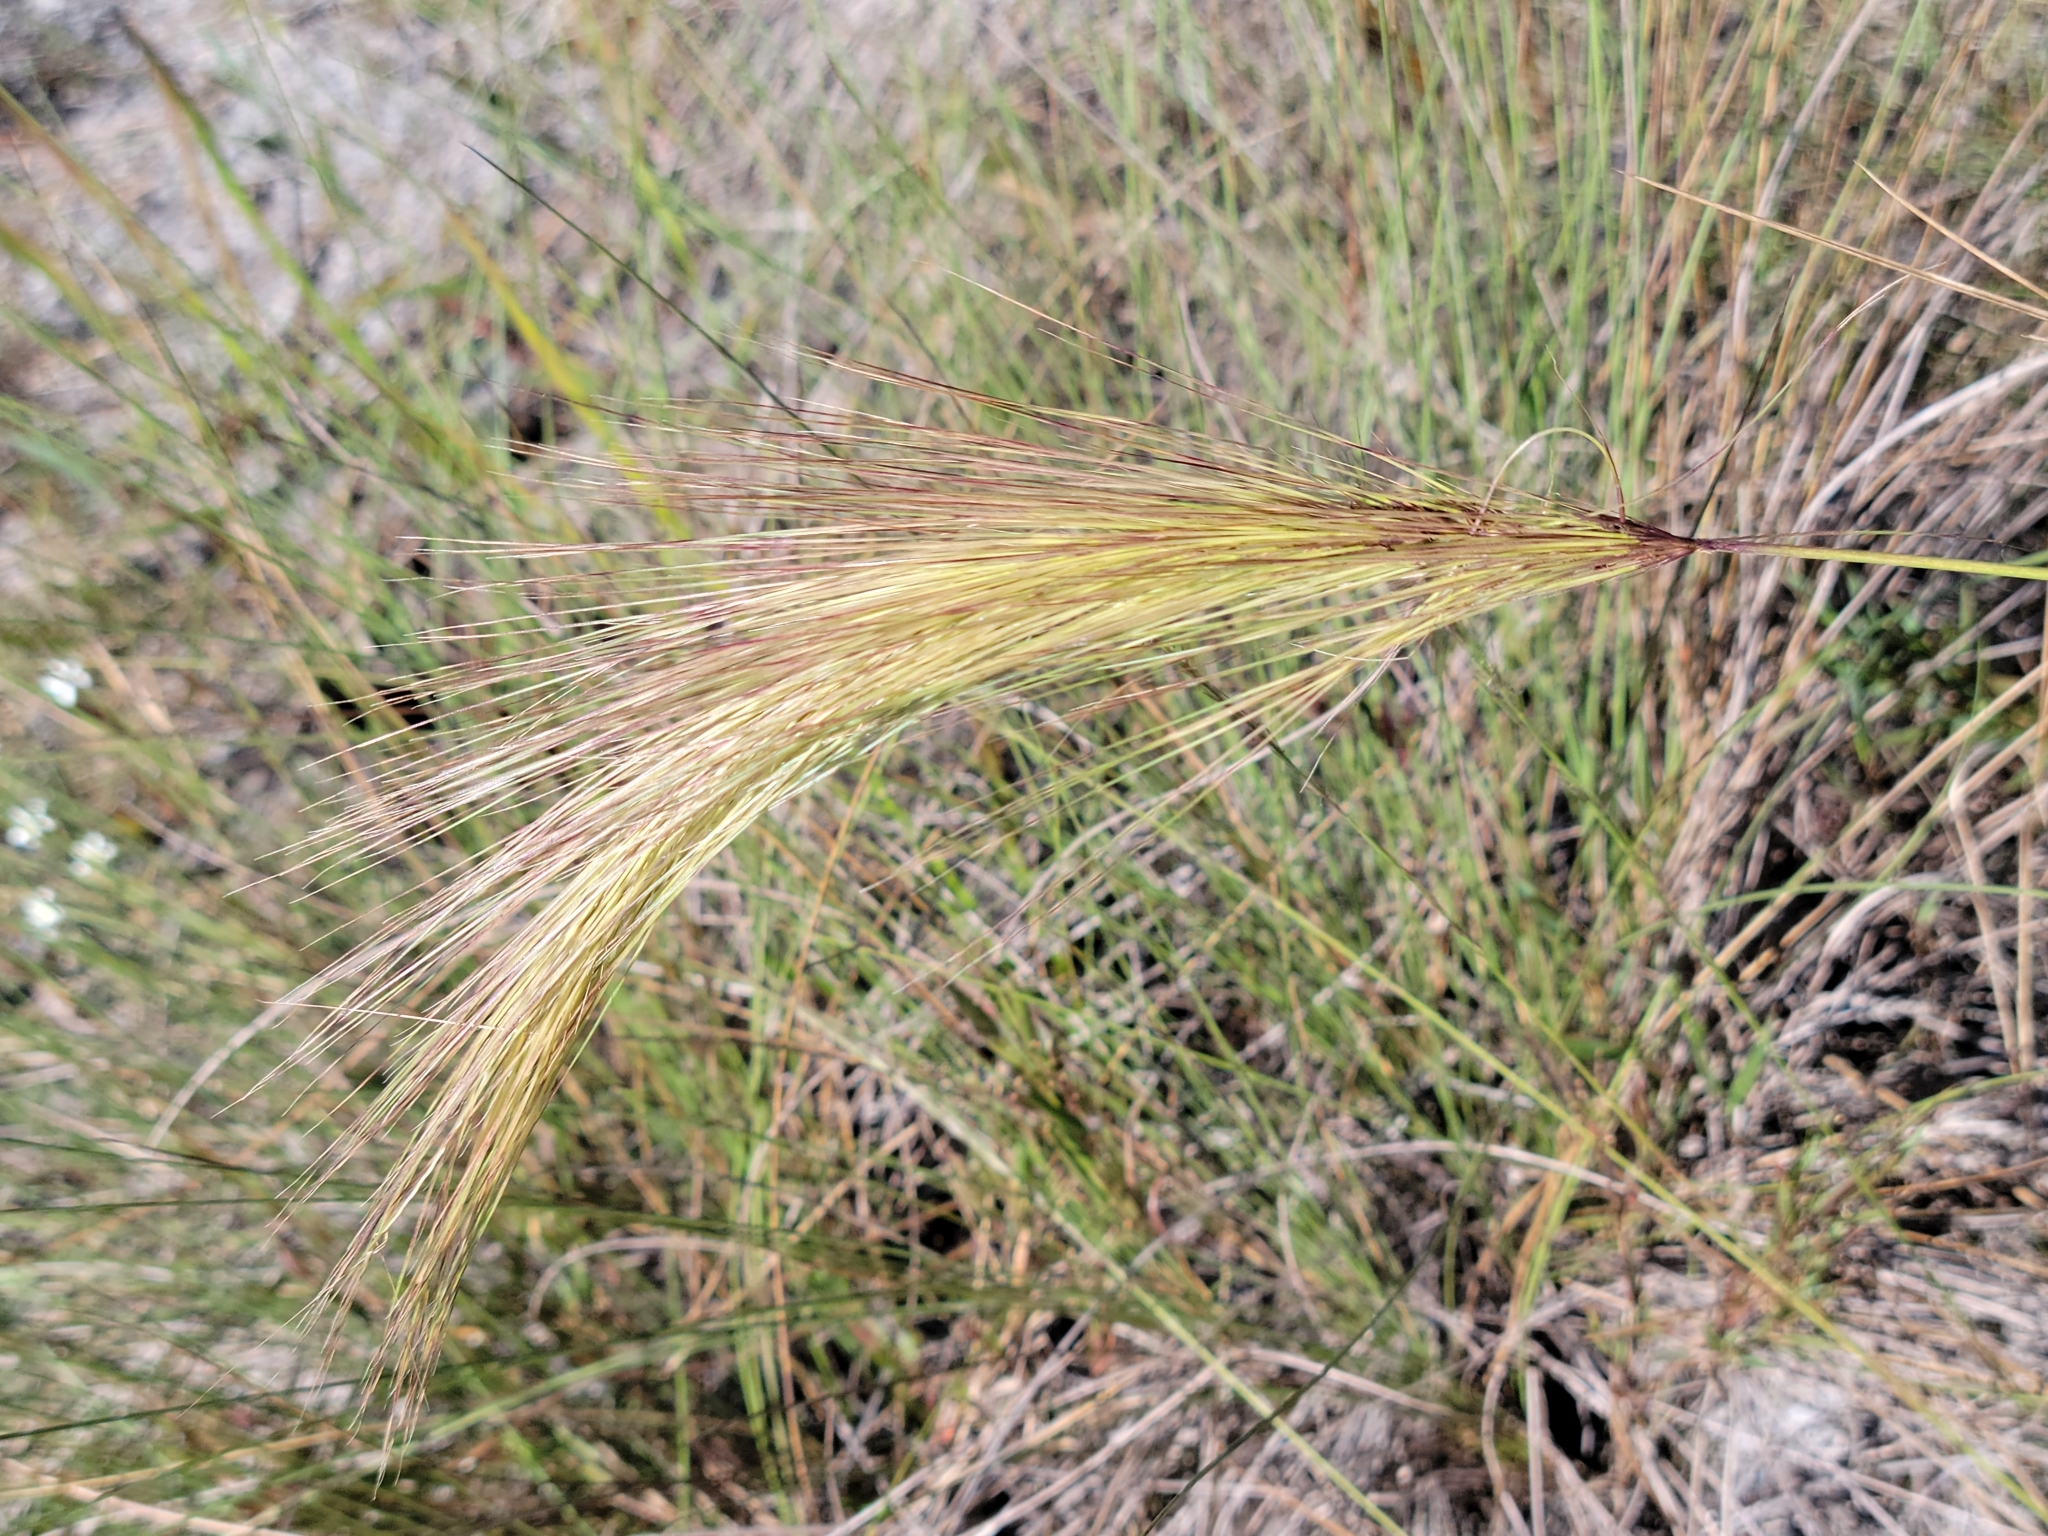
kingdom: Plantae
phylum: Tracheophyta
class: Liliopsida
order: Poales
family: Poaceae
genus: Aristida
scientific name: Aristida spiciformis
